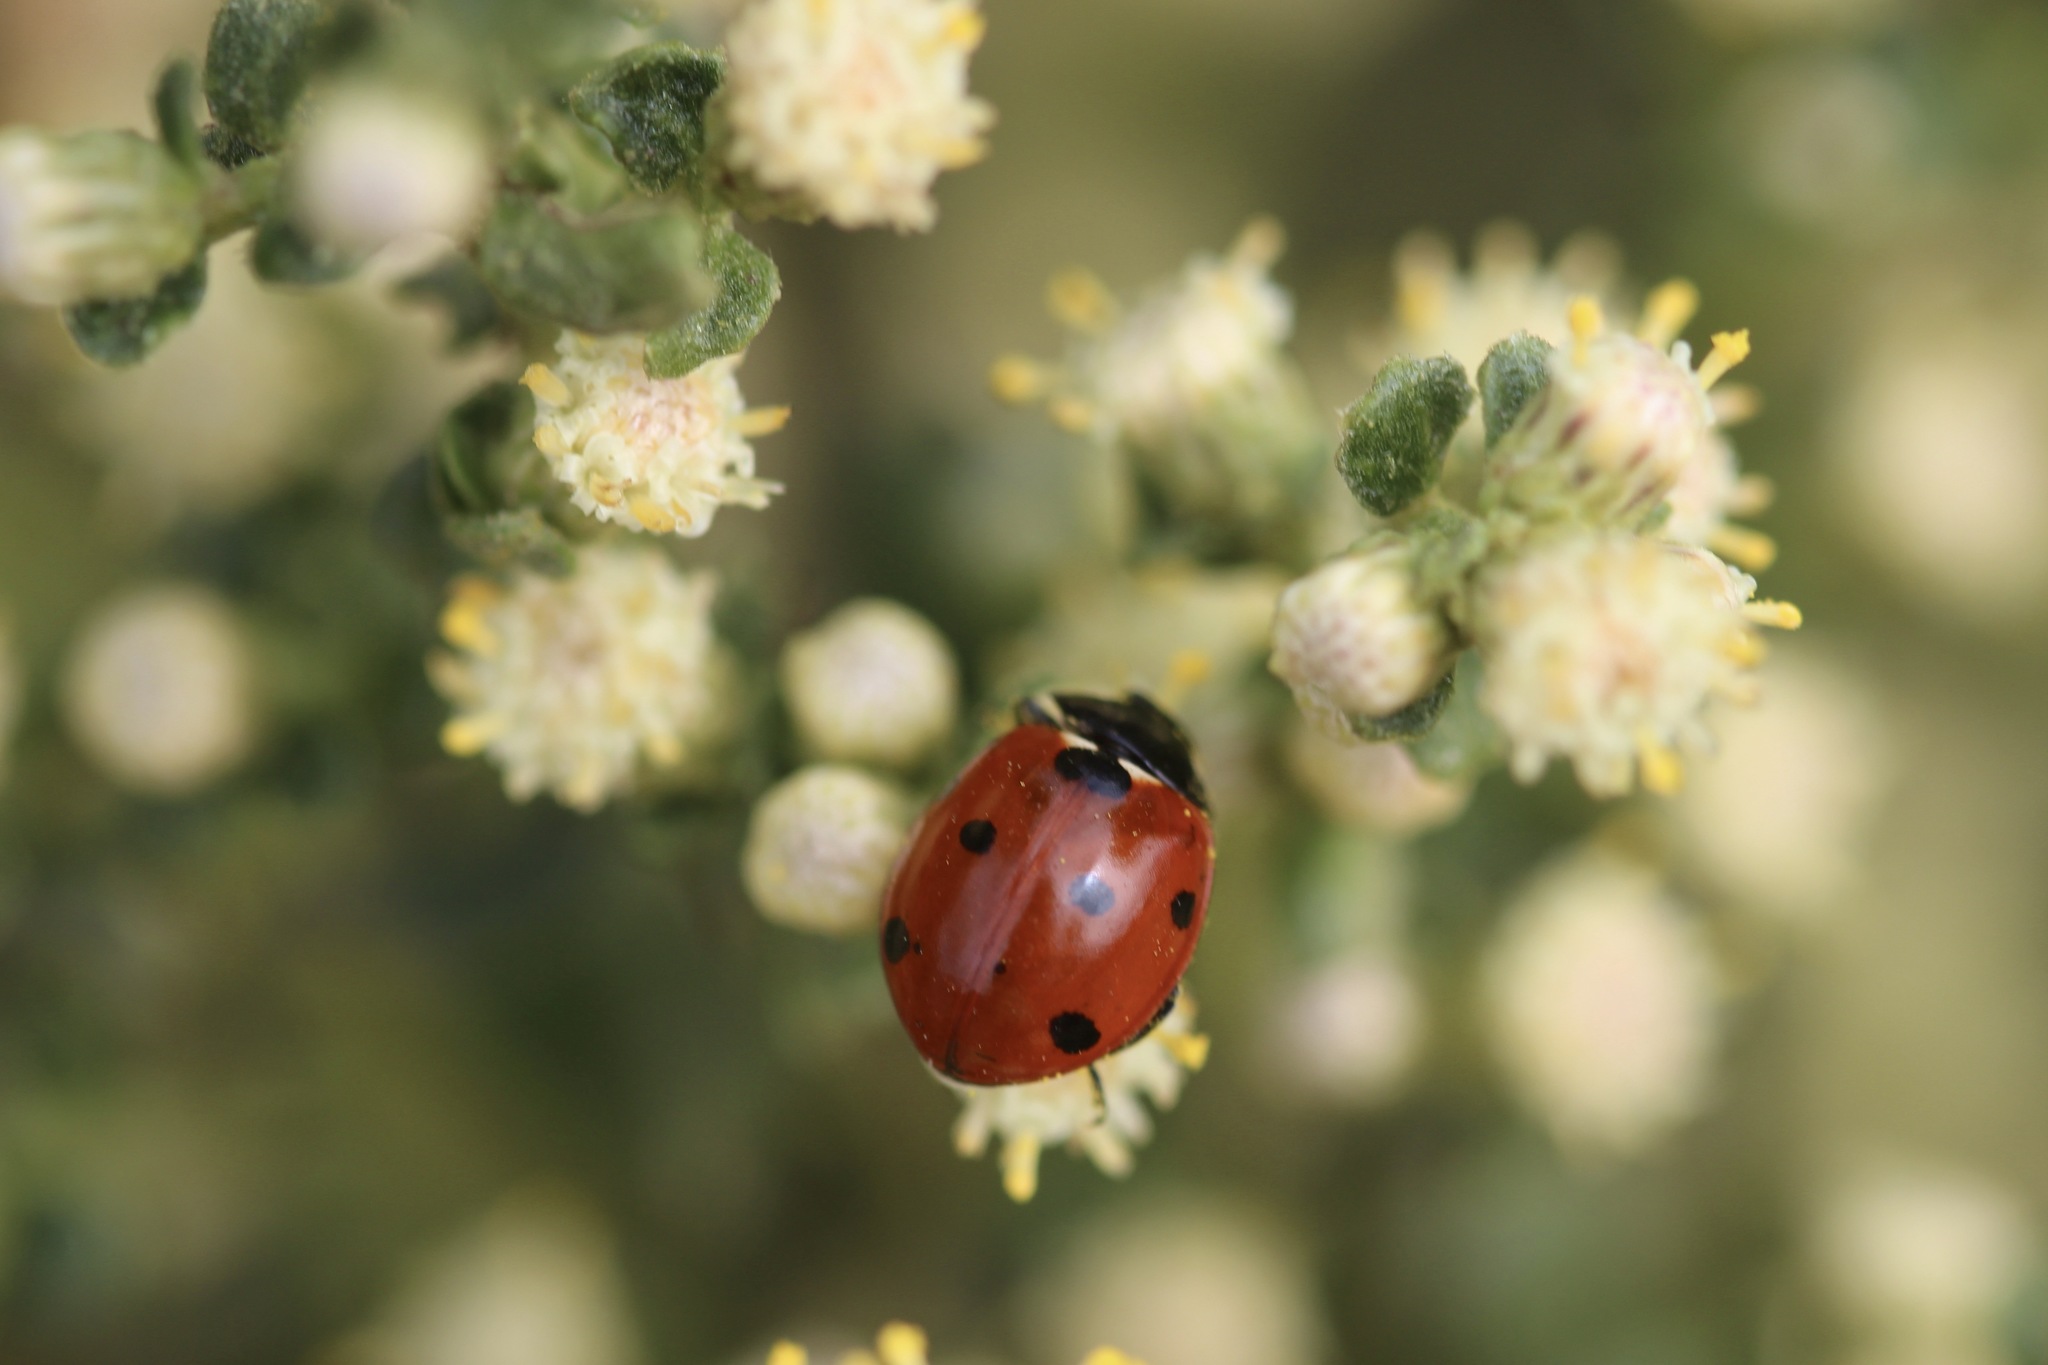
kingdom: Animalia
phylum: Arthropoda
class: Insecta
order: Coleoptera
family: Coccinellidae
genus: Coccinella
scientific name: Coccinella septempunctata
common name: Sevenspotted lady beetle
